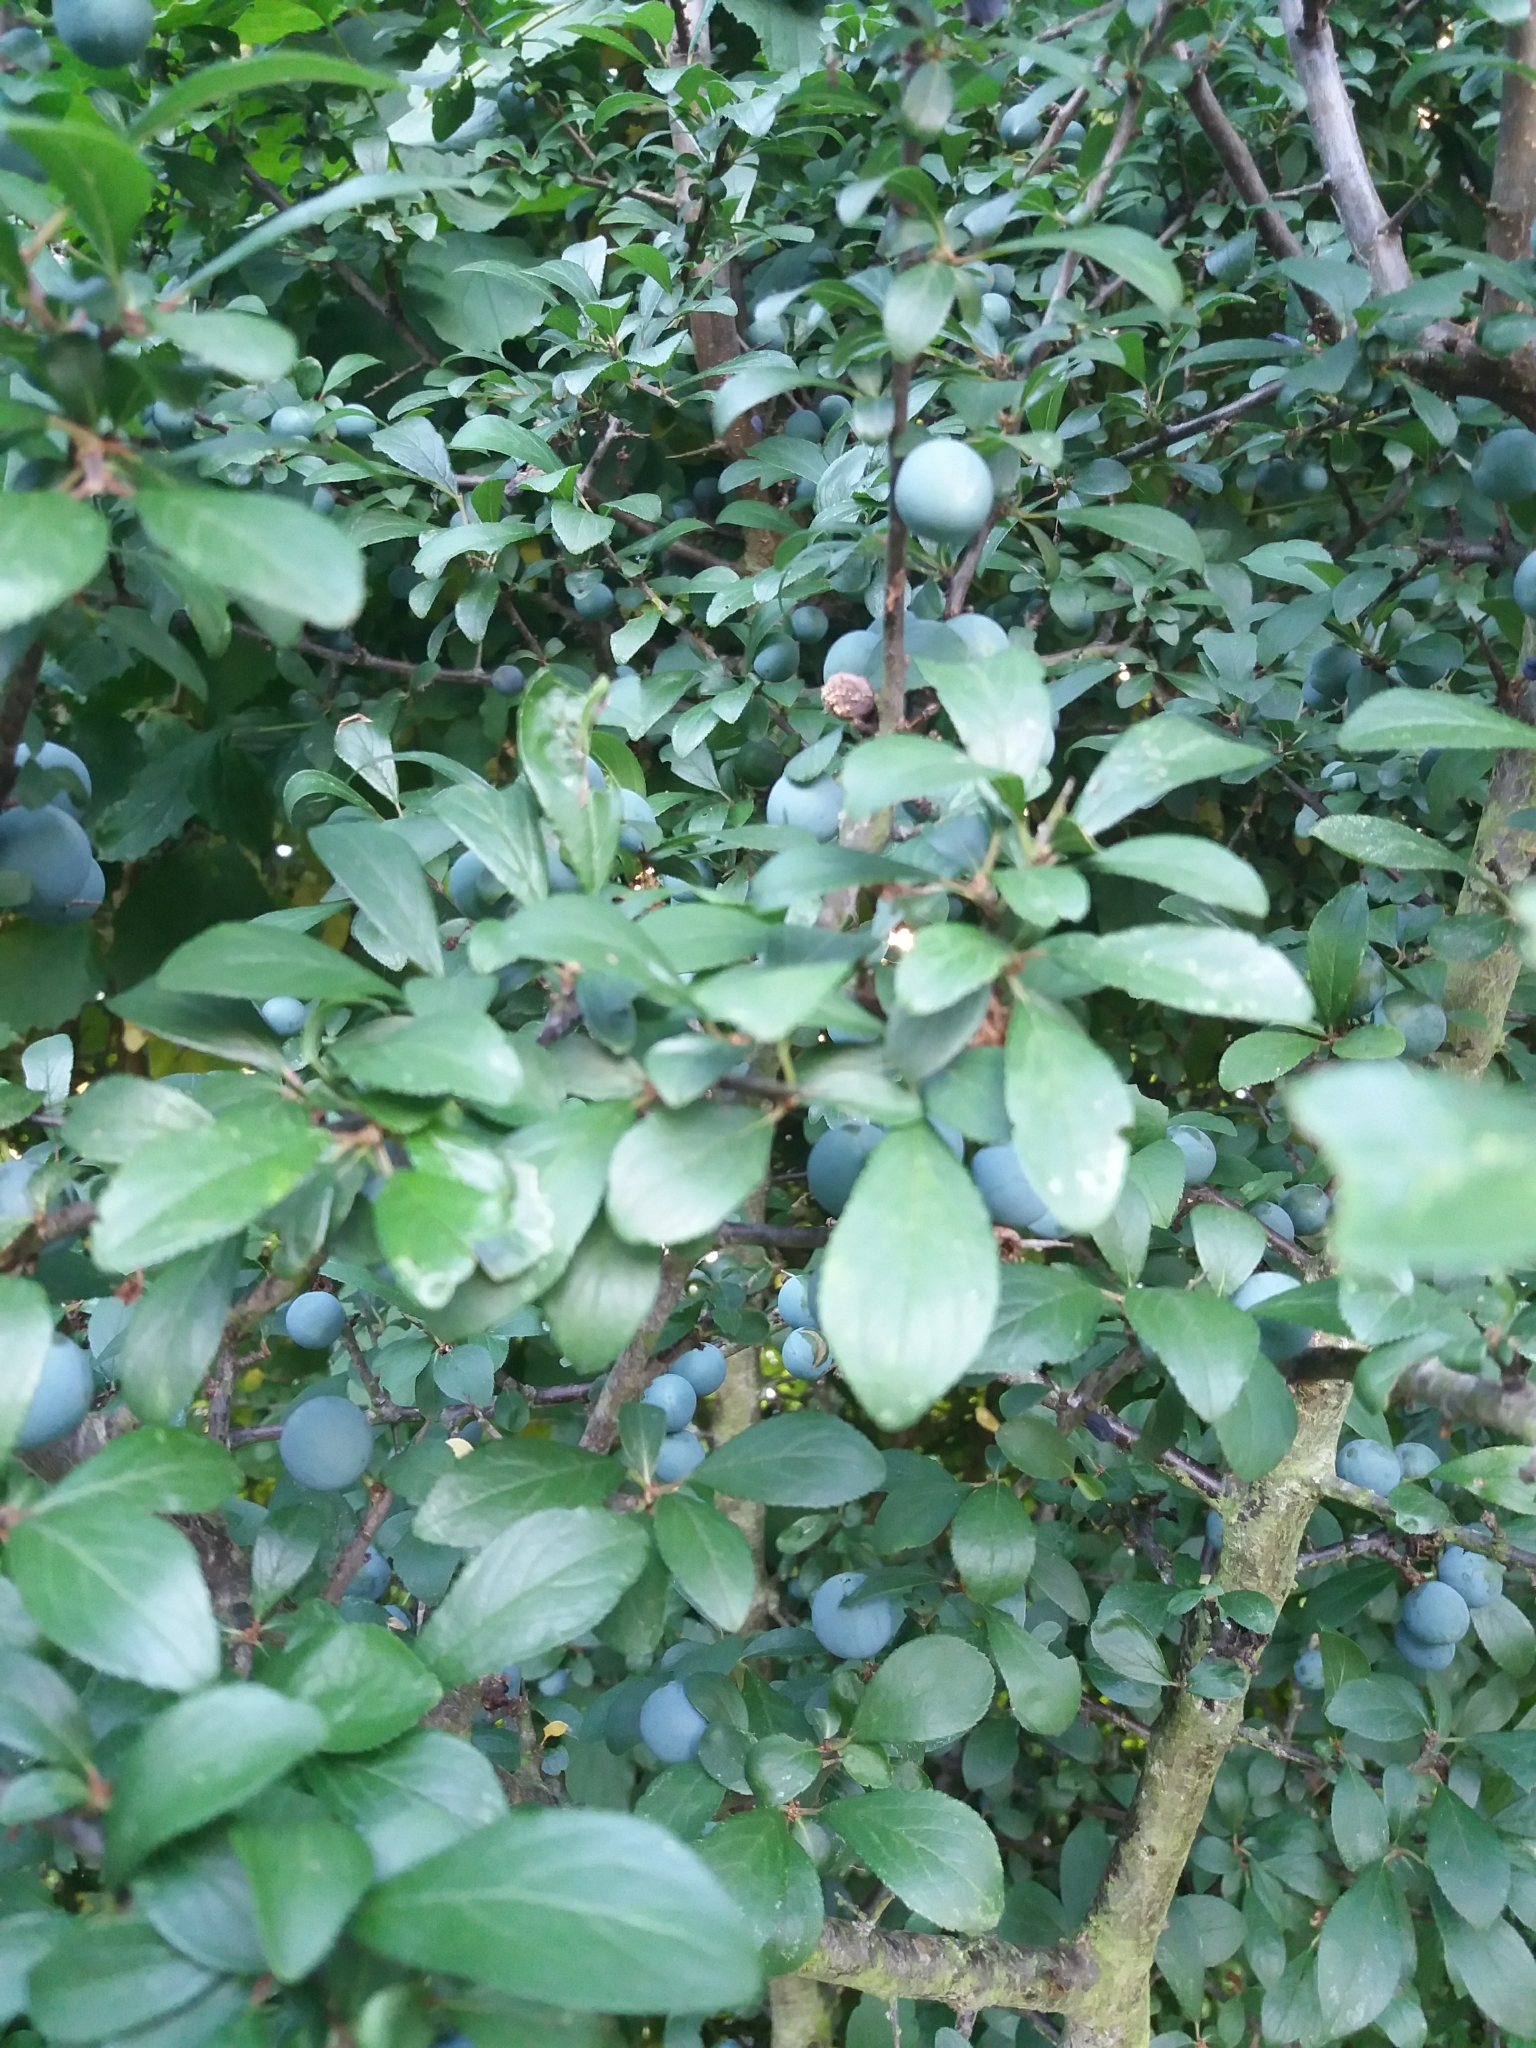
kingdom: Plantae
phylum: Tracheophyta
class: Magnoliopsida
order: Rosales
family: Rosaceae
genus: Prunus
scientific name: Prunus spinosa
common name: Blackthorn
